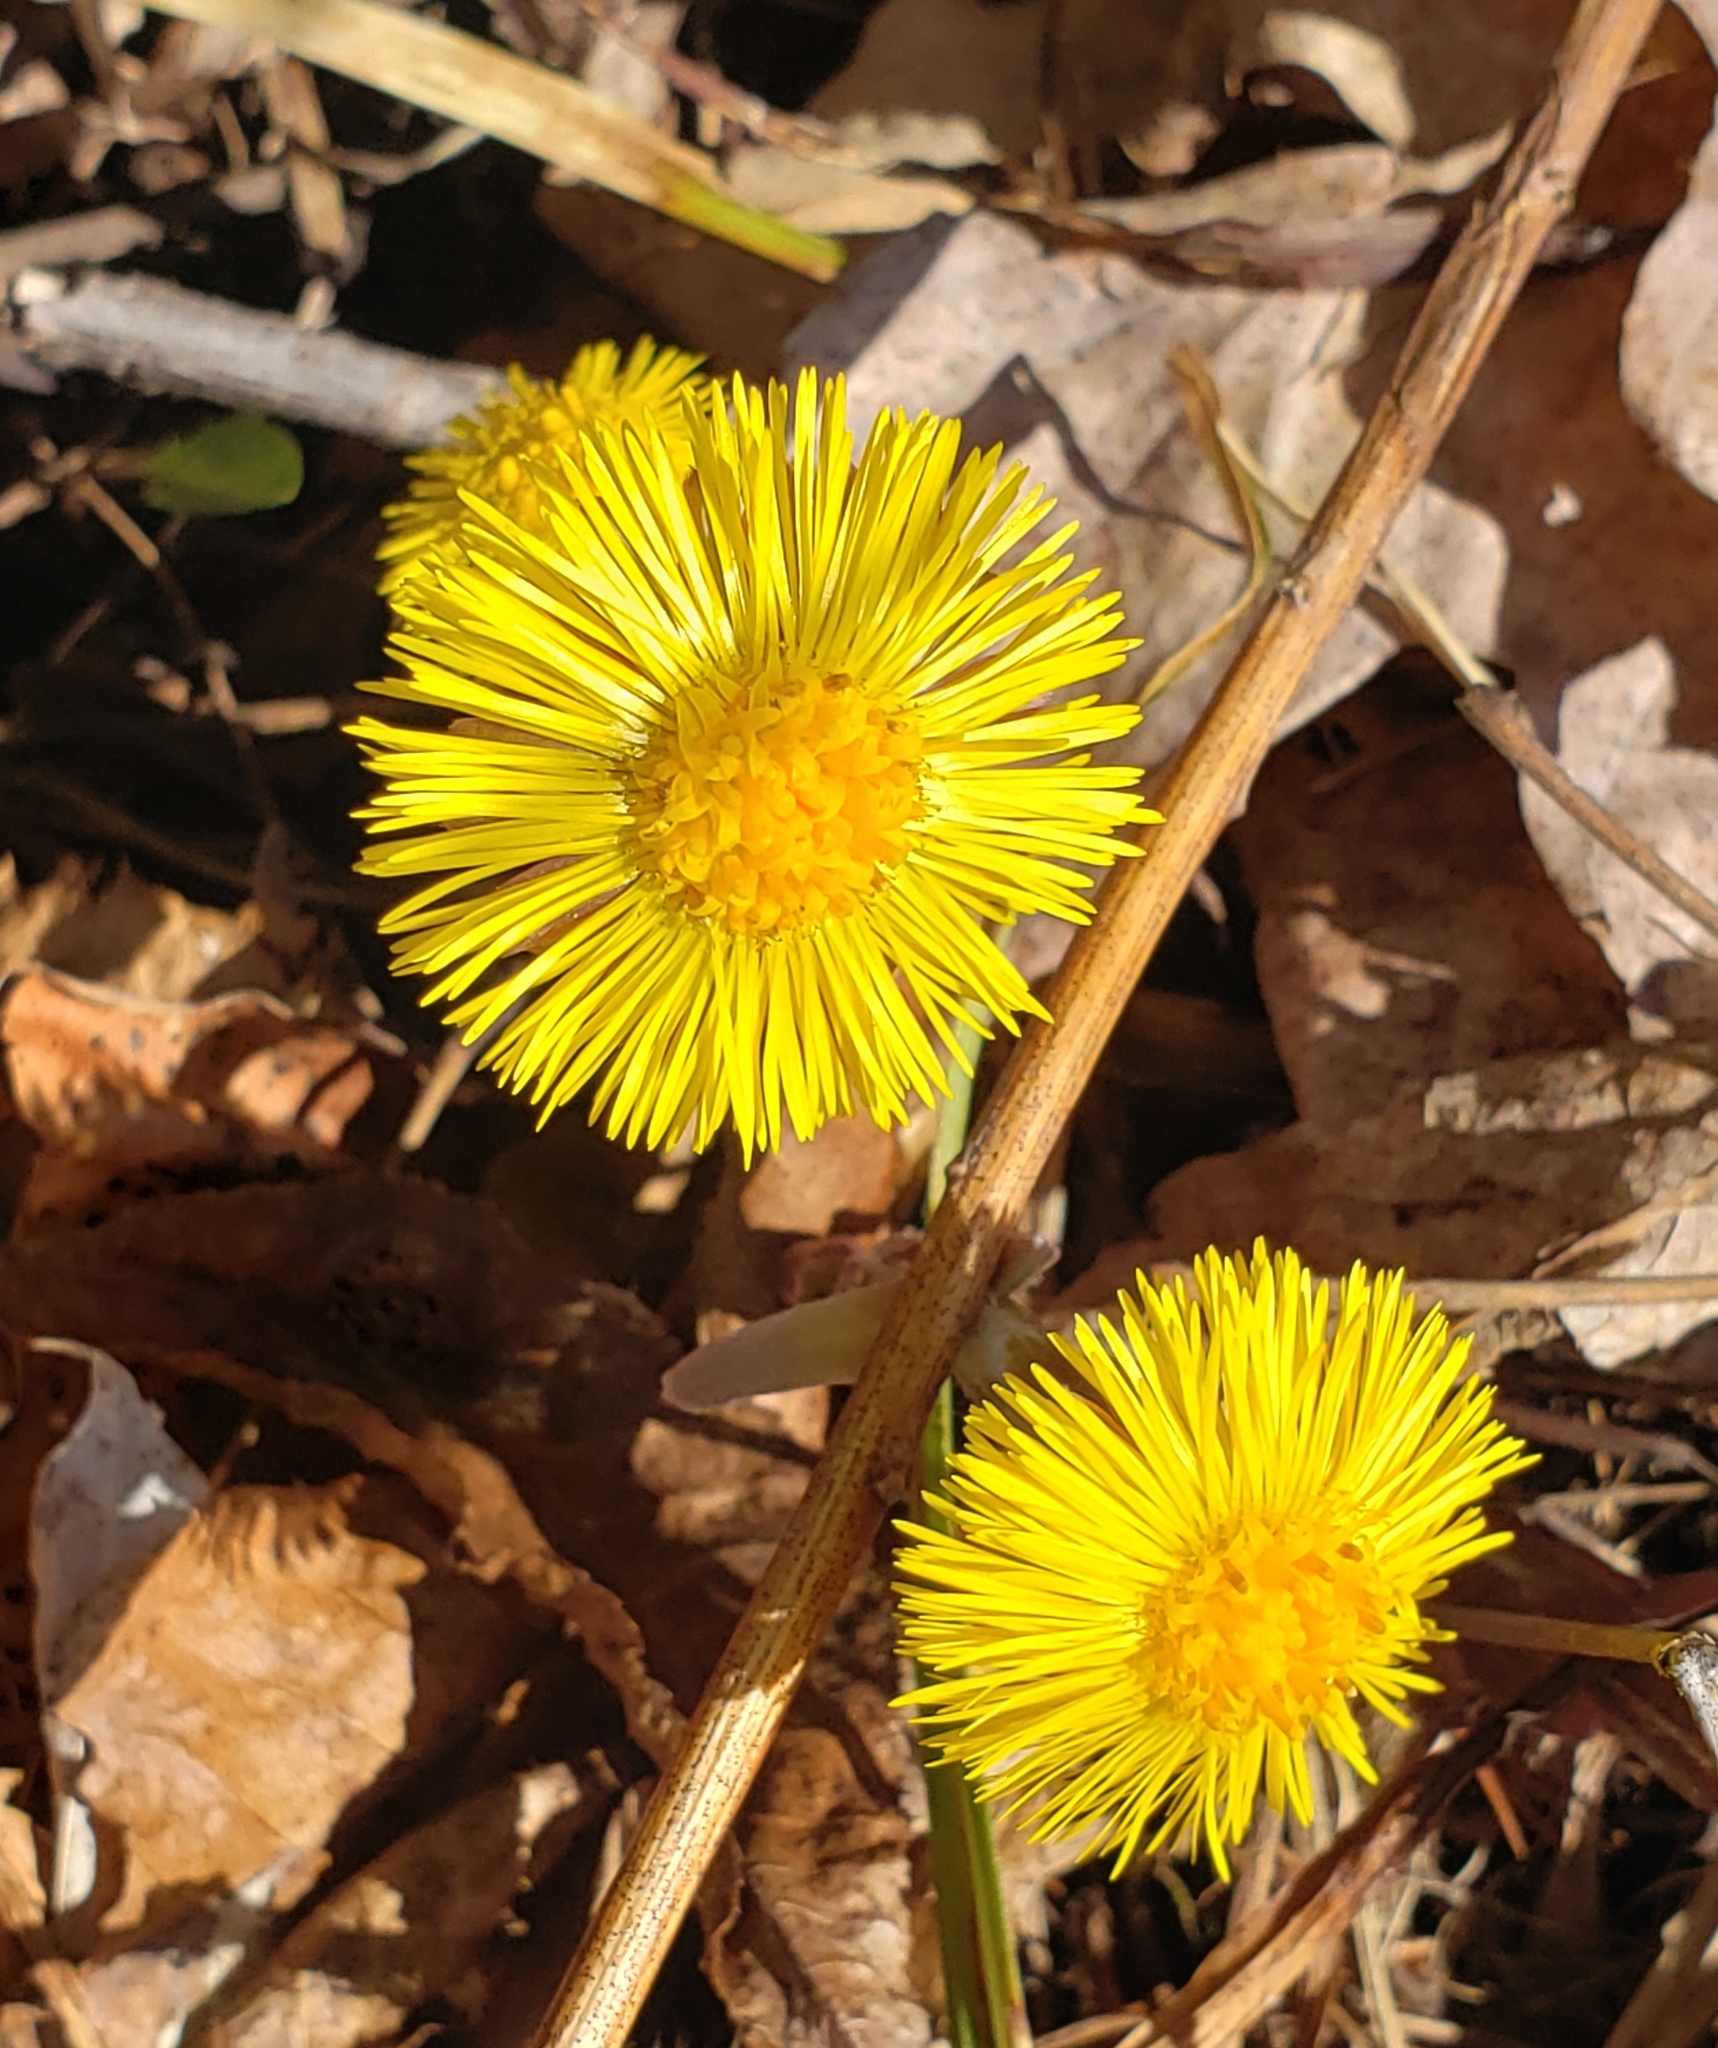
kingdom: Plantae
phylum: Tracheophyta
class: Magnoliopsida
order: Asterales
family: Asteraceae
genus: Tussilago
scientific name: Tussilago farfara
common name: Coltsfoot
